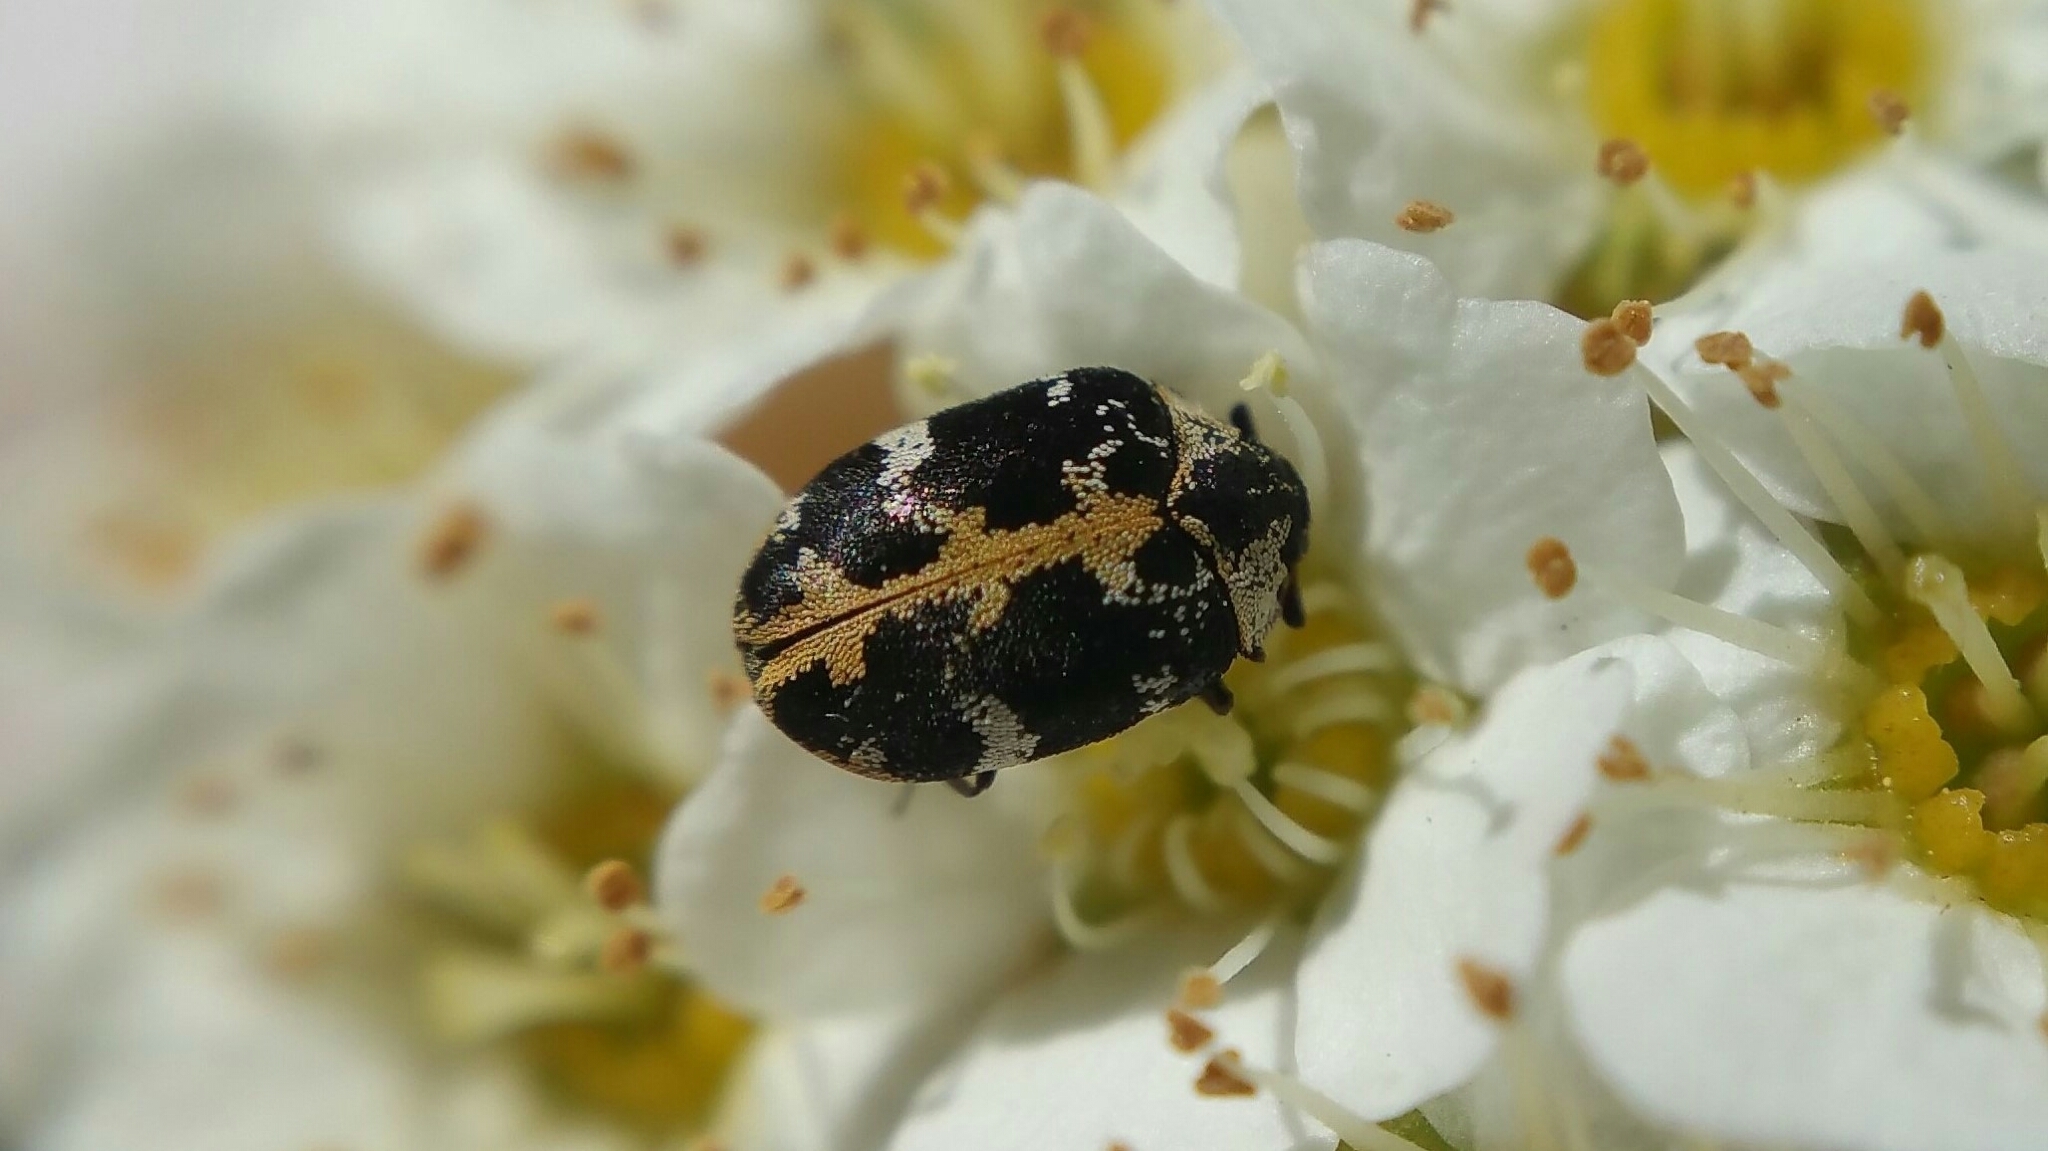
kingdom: Animalia
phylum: Arthropoda
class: Insecta
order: Coleoptera
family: Dermestidae
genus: Anthrenus
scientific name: Anthrenus scrophulariae
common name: Buffalo carpet beetle
